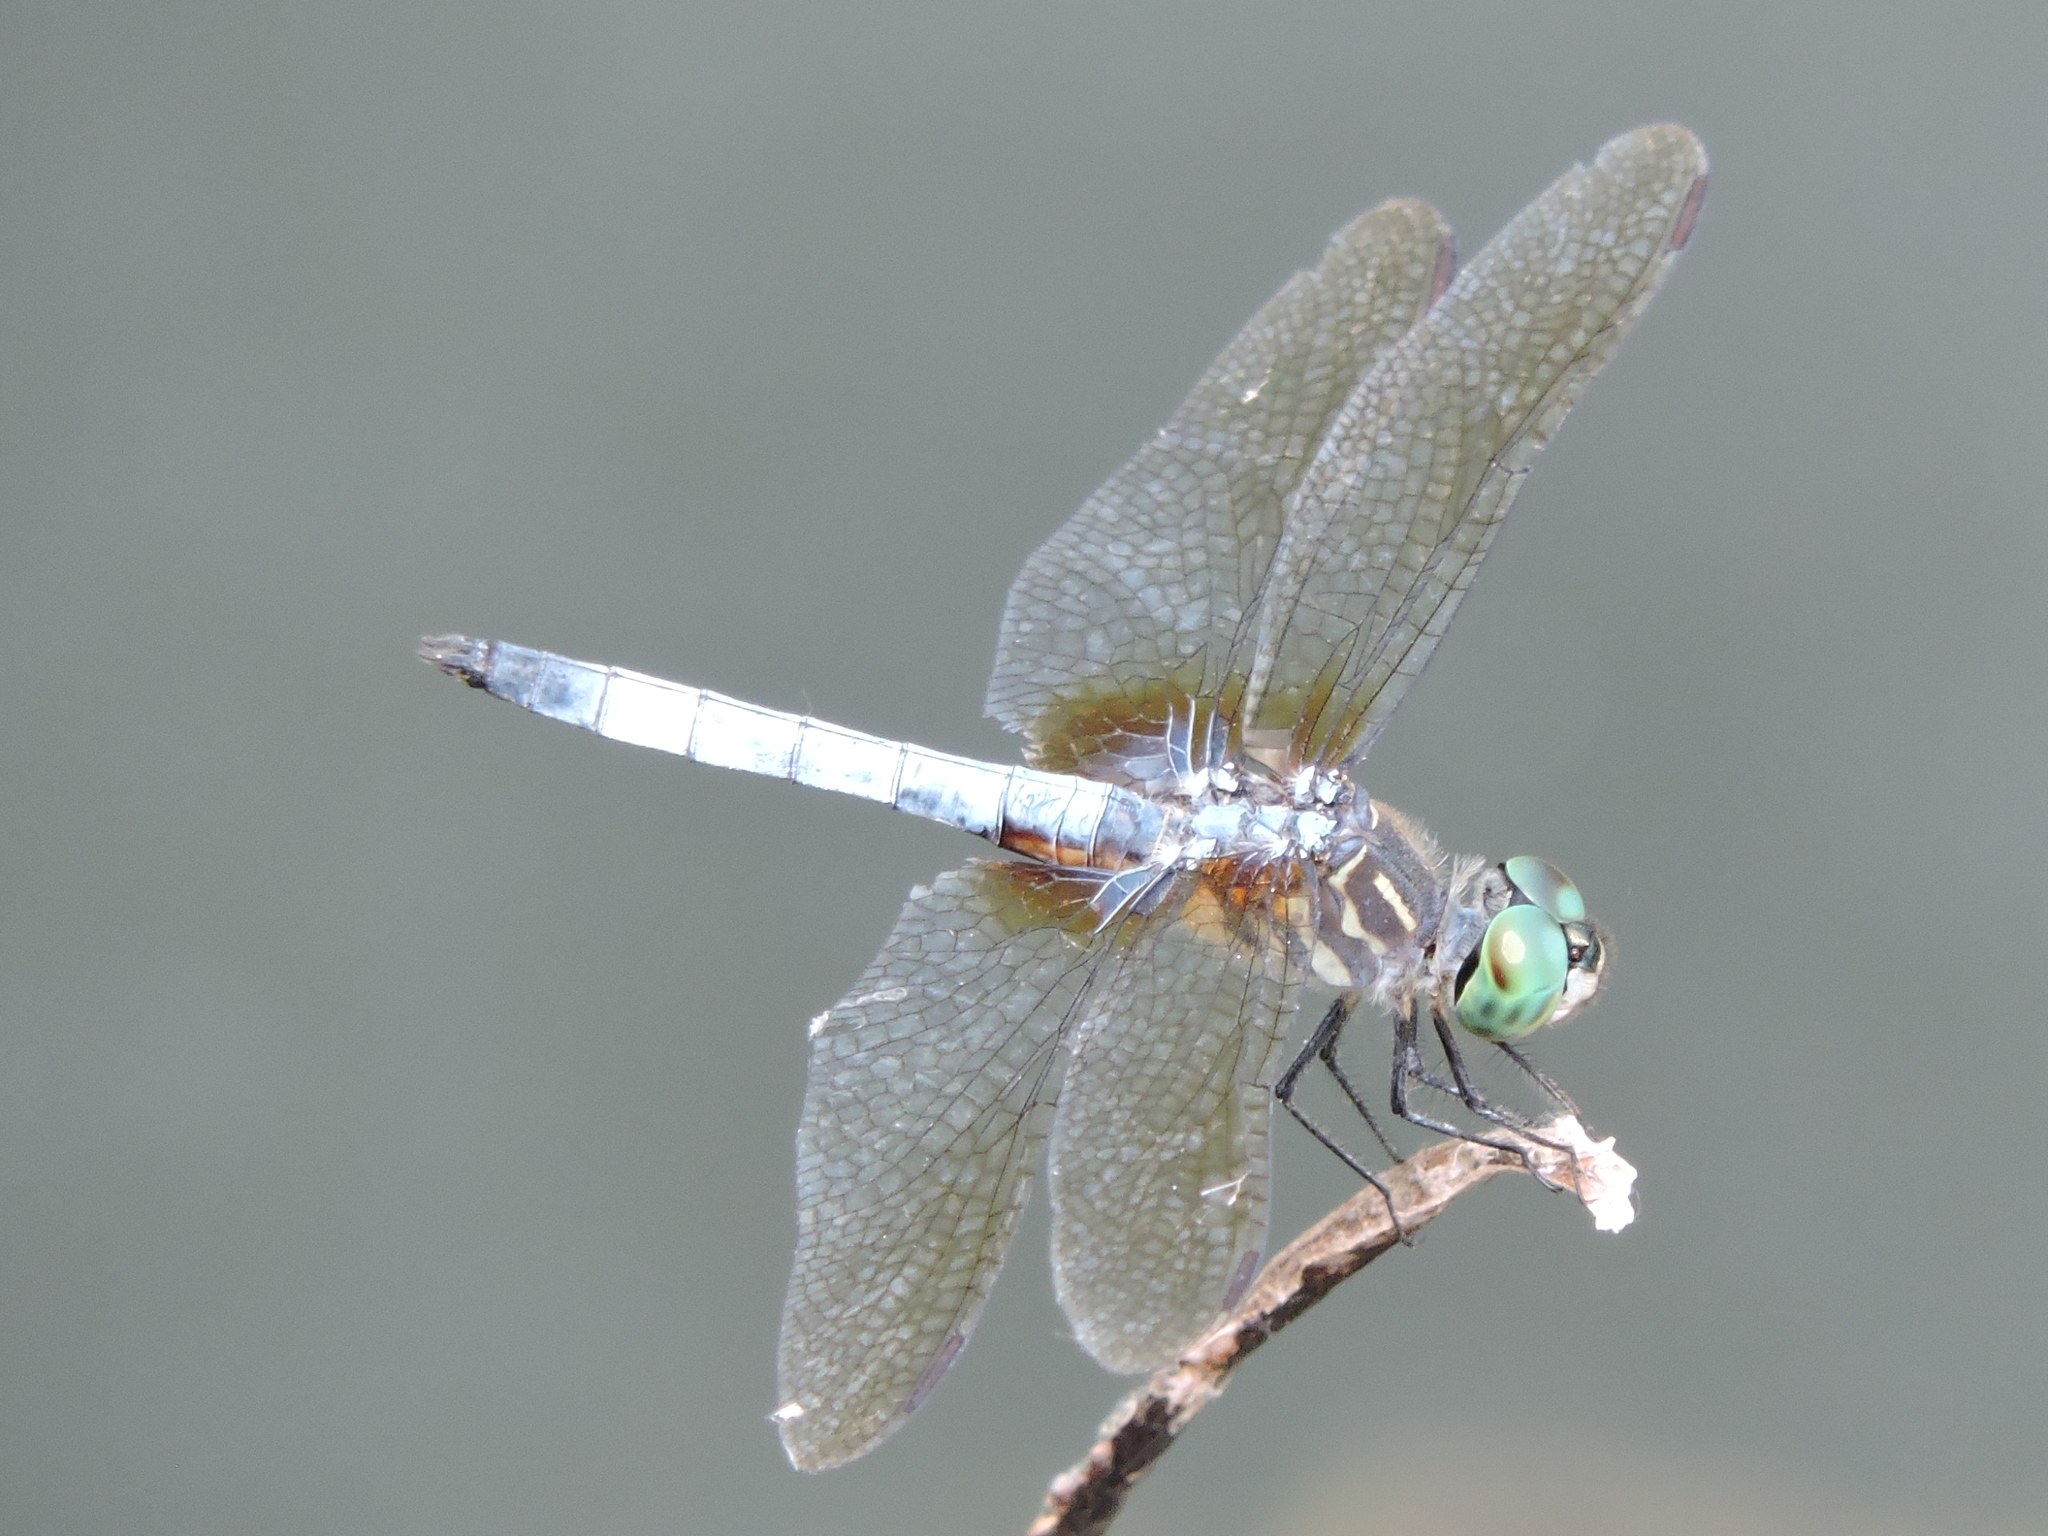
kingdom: Animalia
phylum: Arthropoda
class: Insecta
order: Odonata
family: Libellulidae
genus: Pachydiplax
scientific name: Pachydiplax longipennis
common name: Blue dasher
